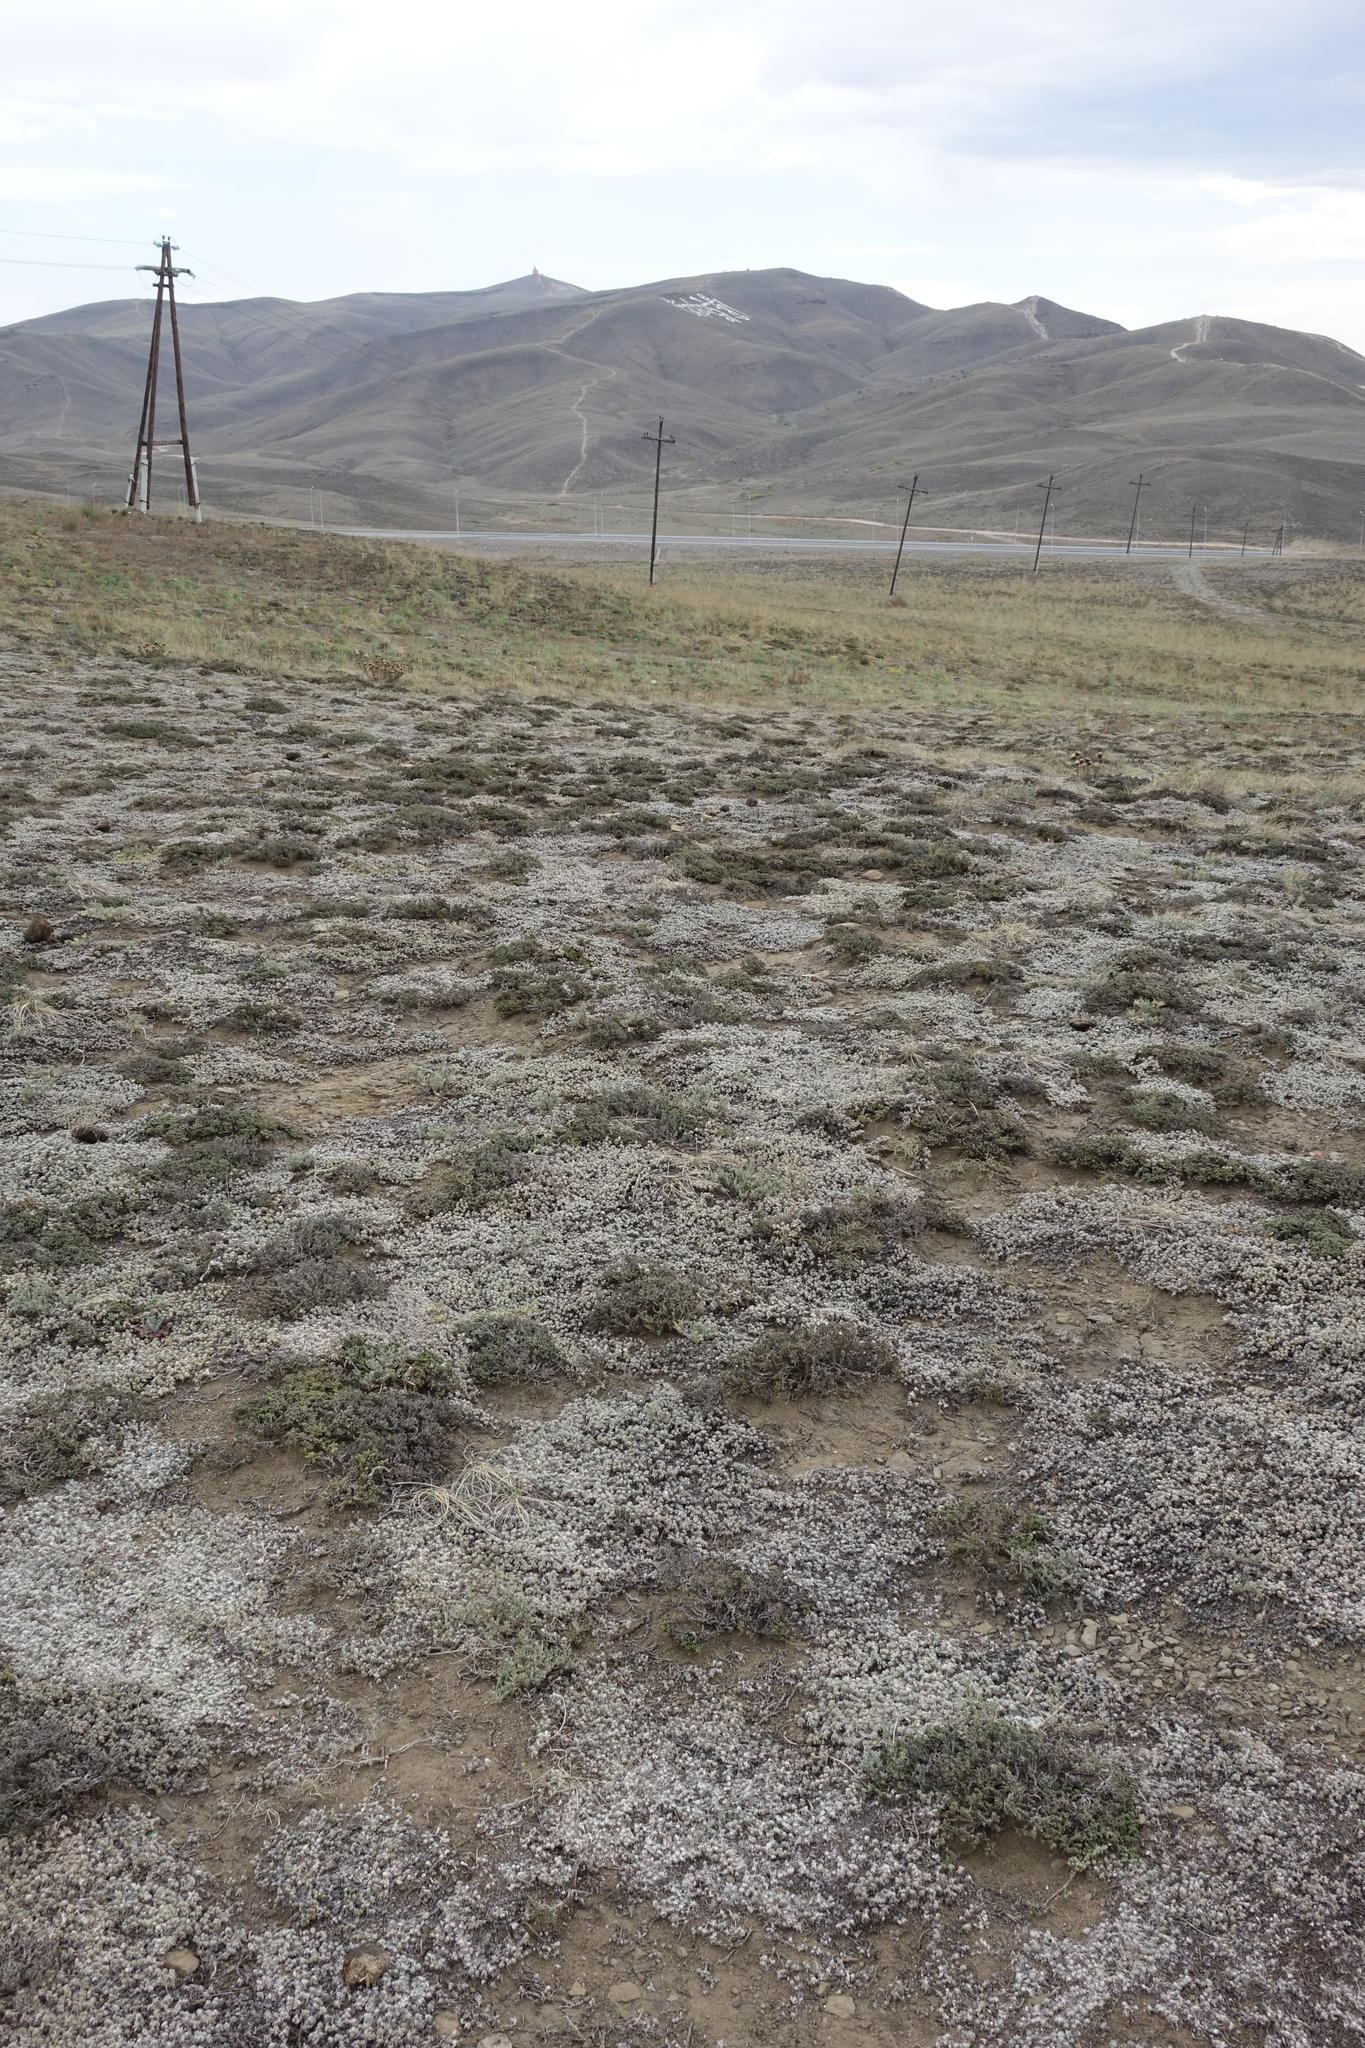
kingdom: Plantae
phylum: Tracheophyta
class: Magnoliopsida
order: Caryophyllales
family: Amaranthaceae
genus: Nanophyton
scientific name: Nanophyton grubovii
